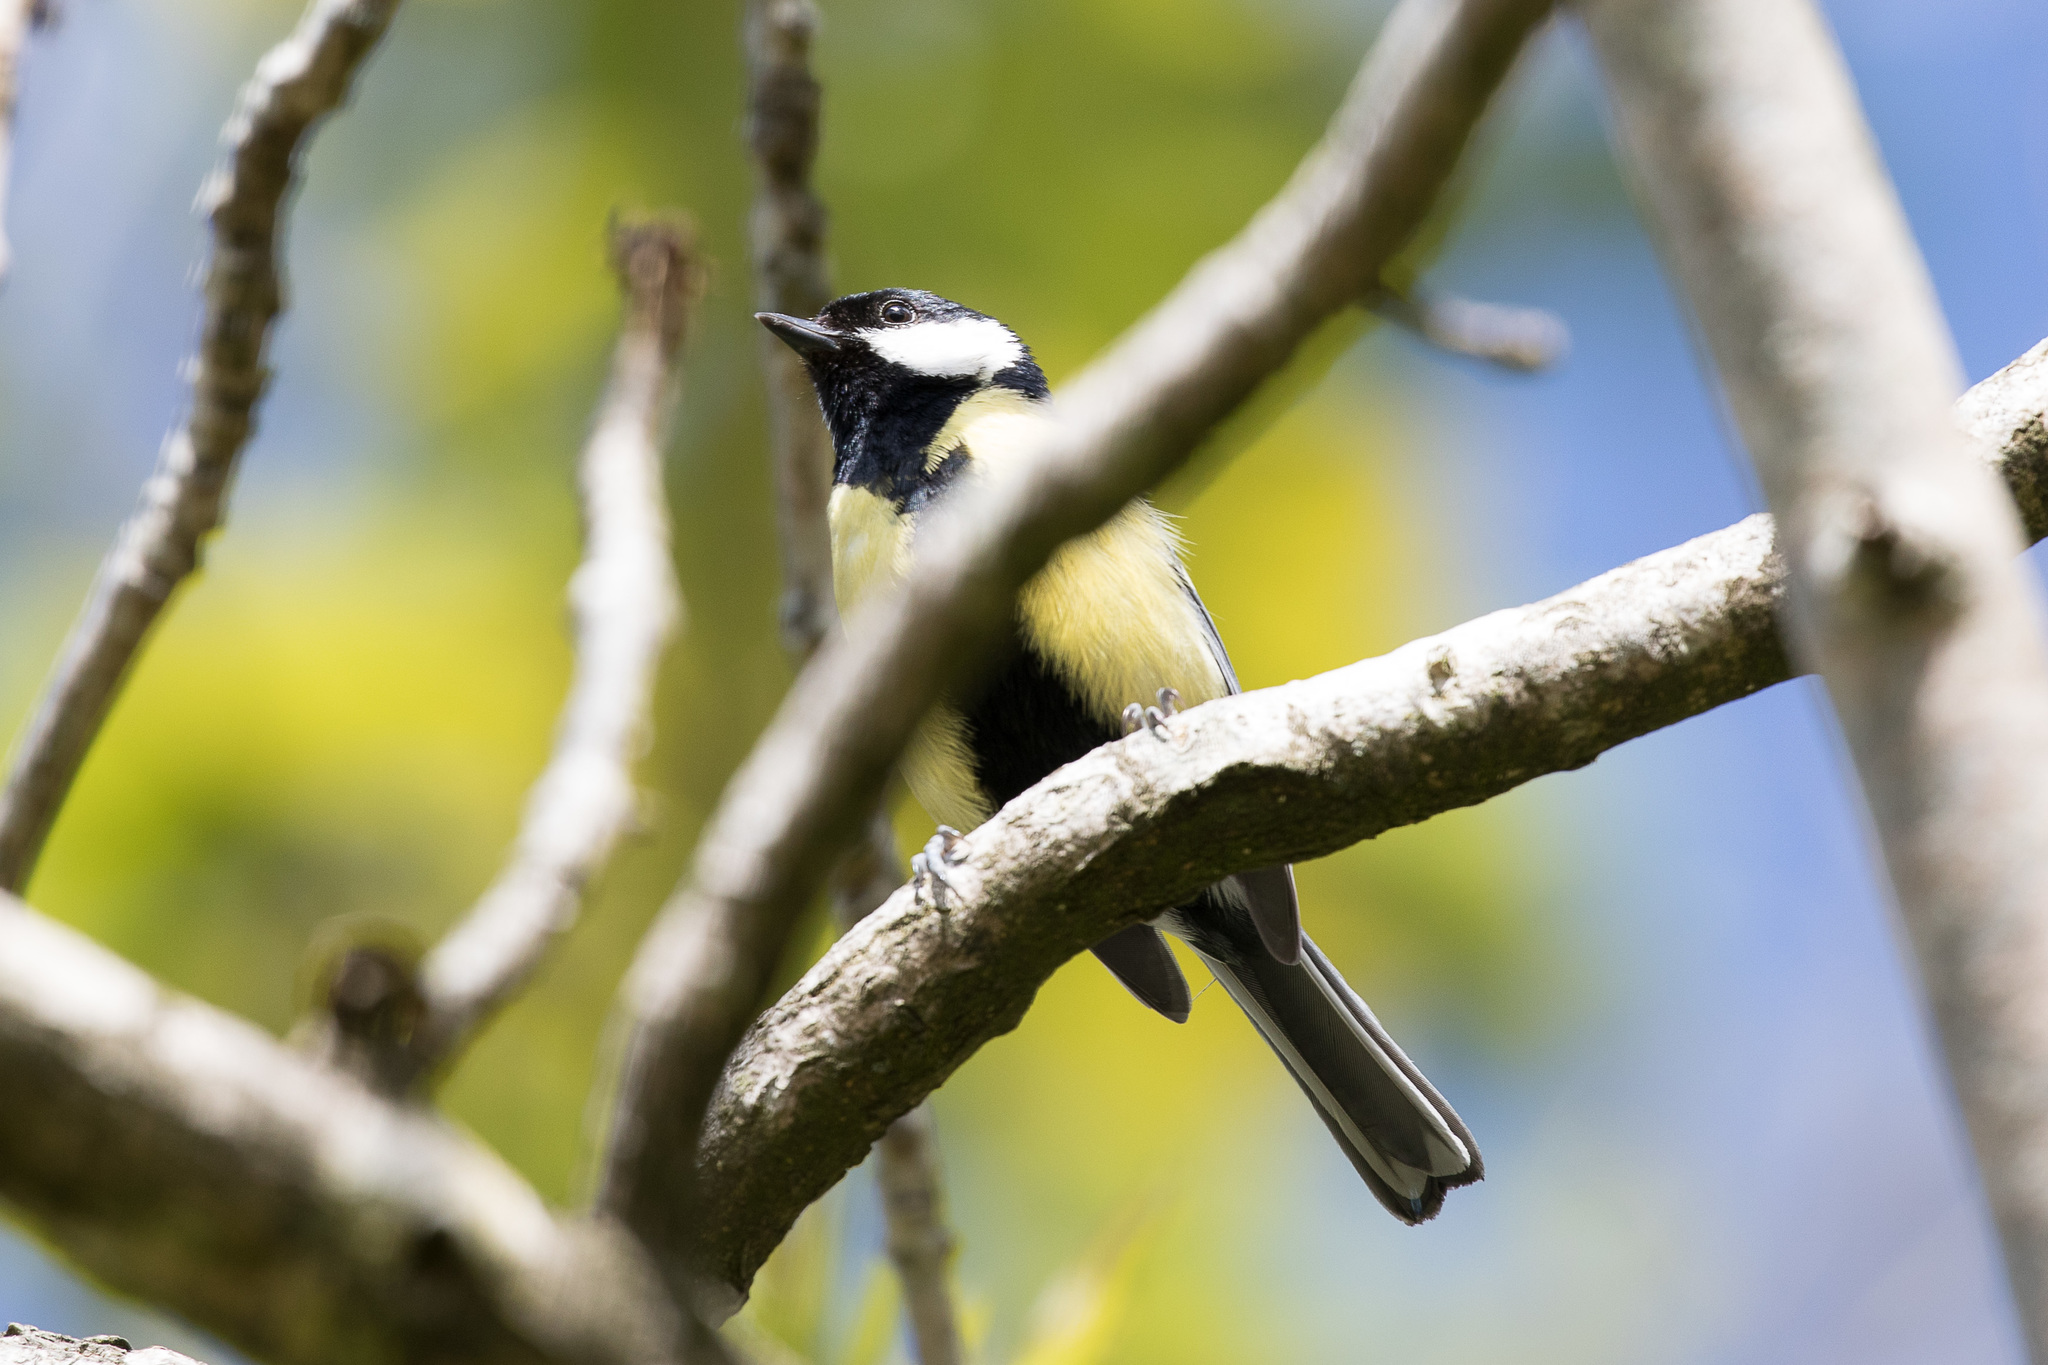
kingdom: Animalia
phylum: Chordata
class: Aves
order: Passeriformes
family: Paridae
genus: Parus
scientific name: Parus major
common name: Great tit
